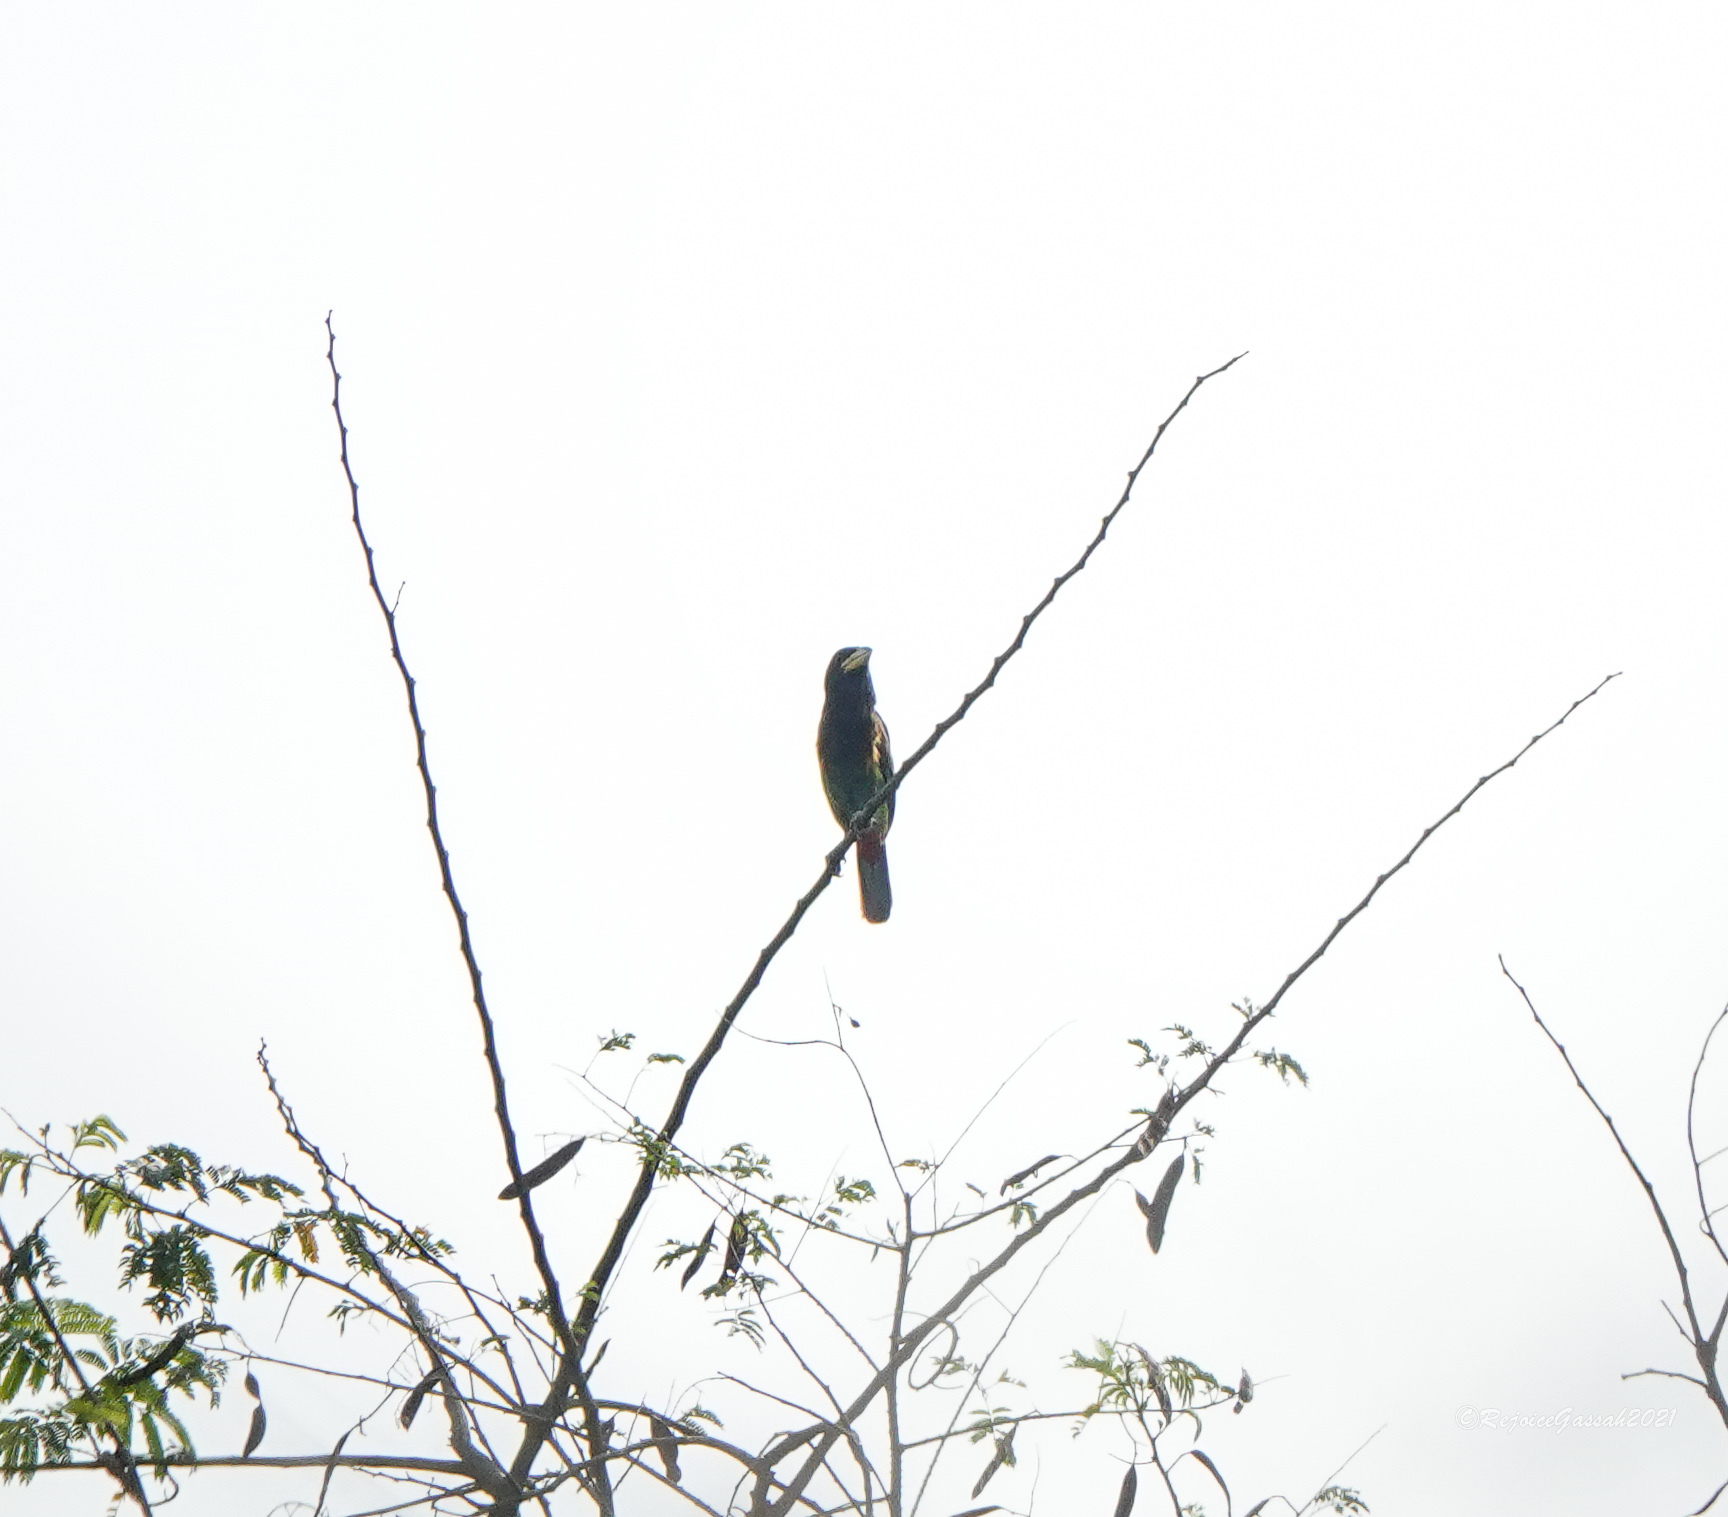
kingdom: Animalia
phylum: Chordata
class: Aves
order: Piciformes
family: Megalaimidae
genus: Psilopogon
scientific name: Psilopogon virens
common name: Great barbet
